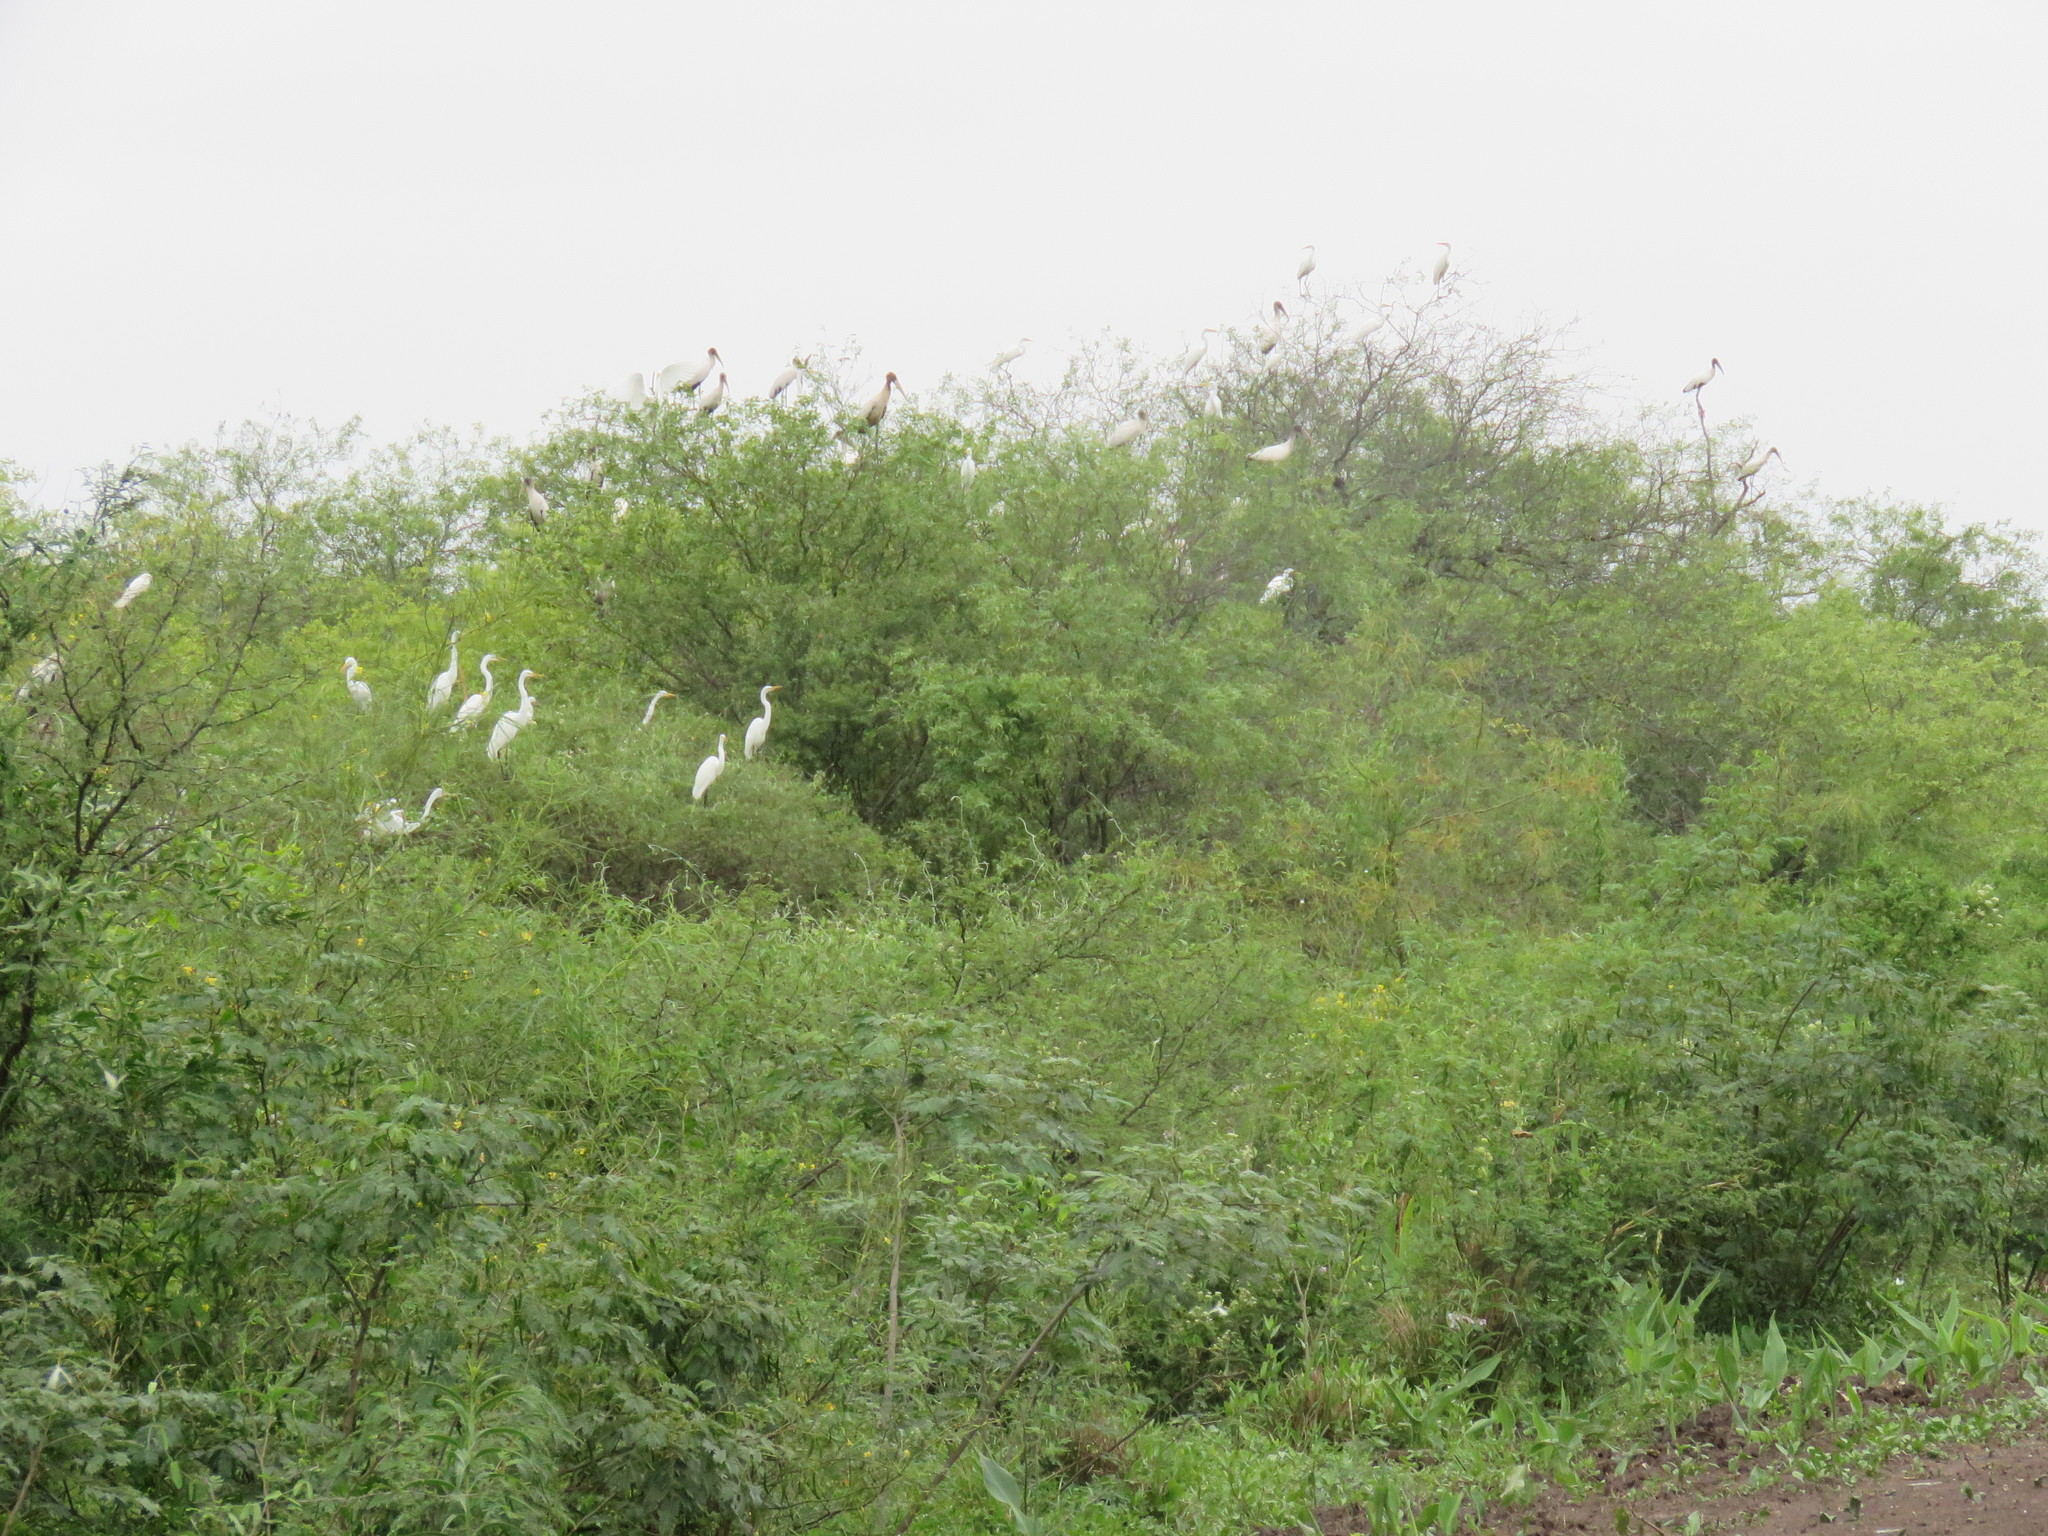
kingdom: Animalia
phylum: Chordata
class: Aves
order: Pelecaniformes
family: Ardeidae
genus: Ardea
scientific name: Ardea alba
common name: Great egret
